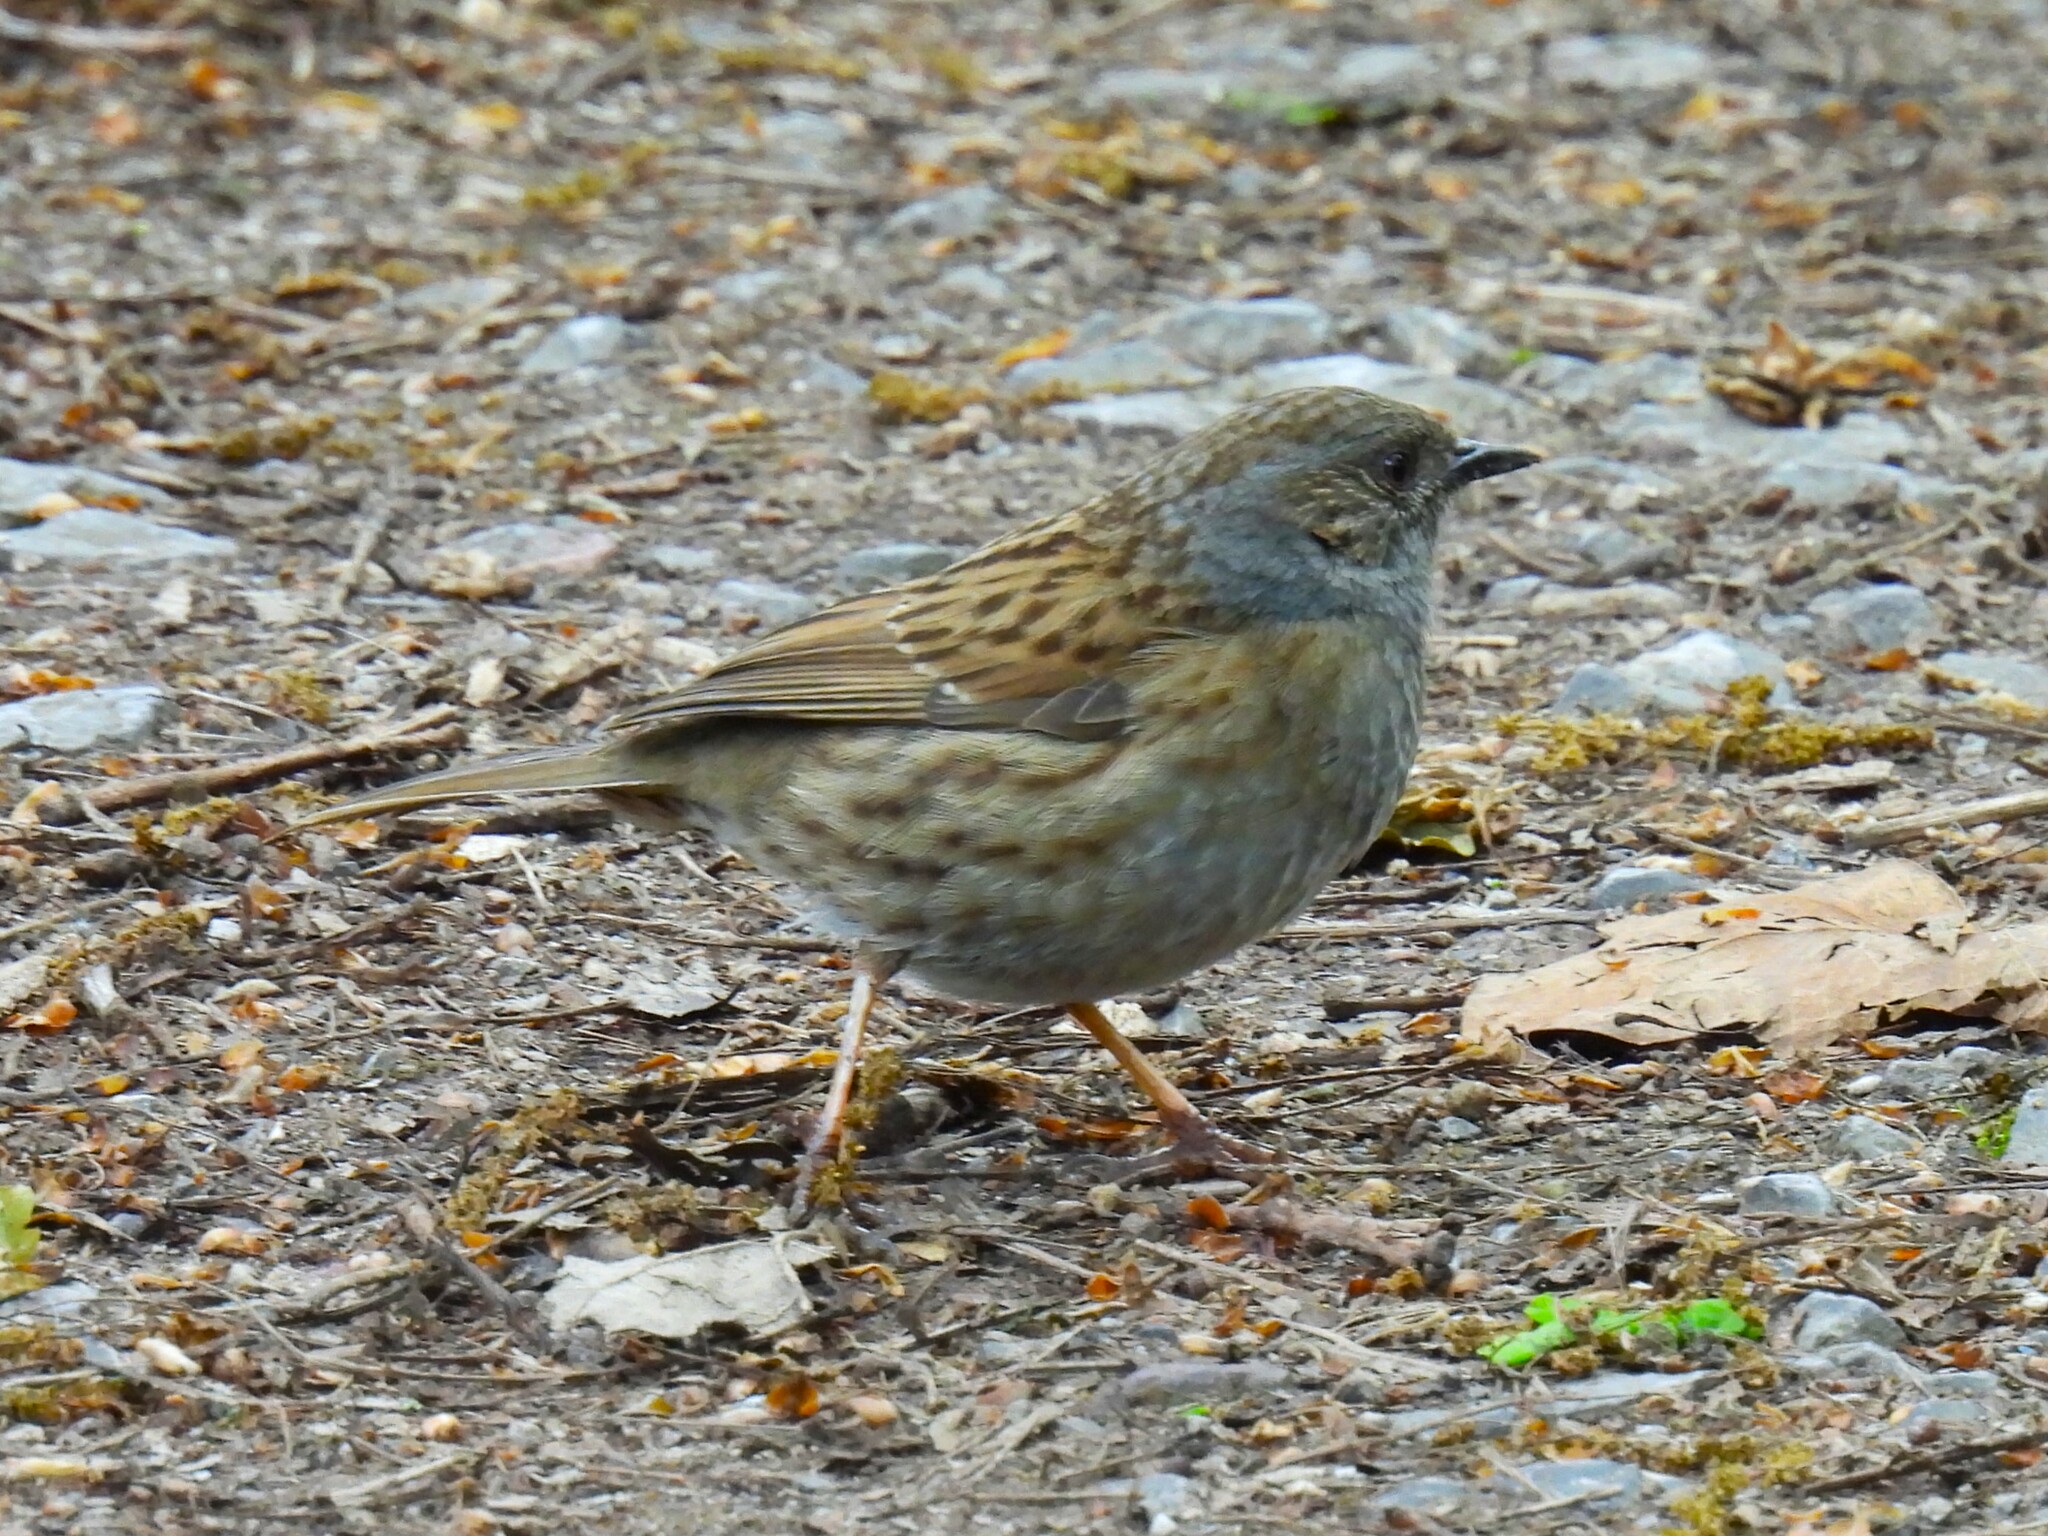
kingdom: Animalia
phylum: Chordata
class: Aves
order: Passeriformes
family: Prunellidae
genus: Prunella
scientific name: Prunella modularis
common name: Dunnock
